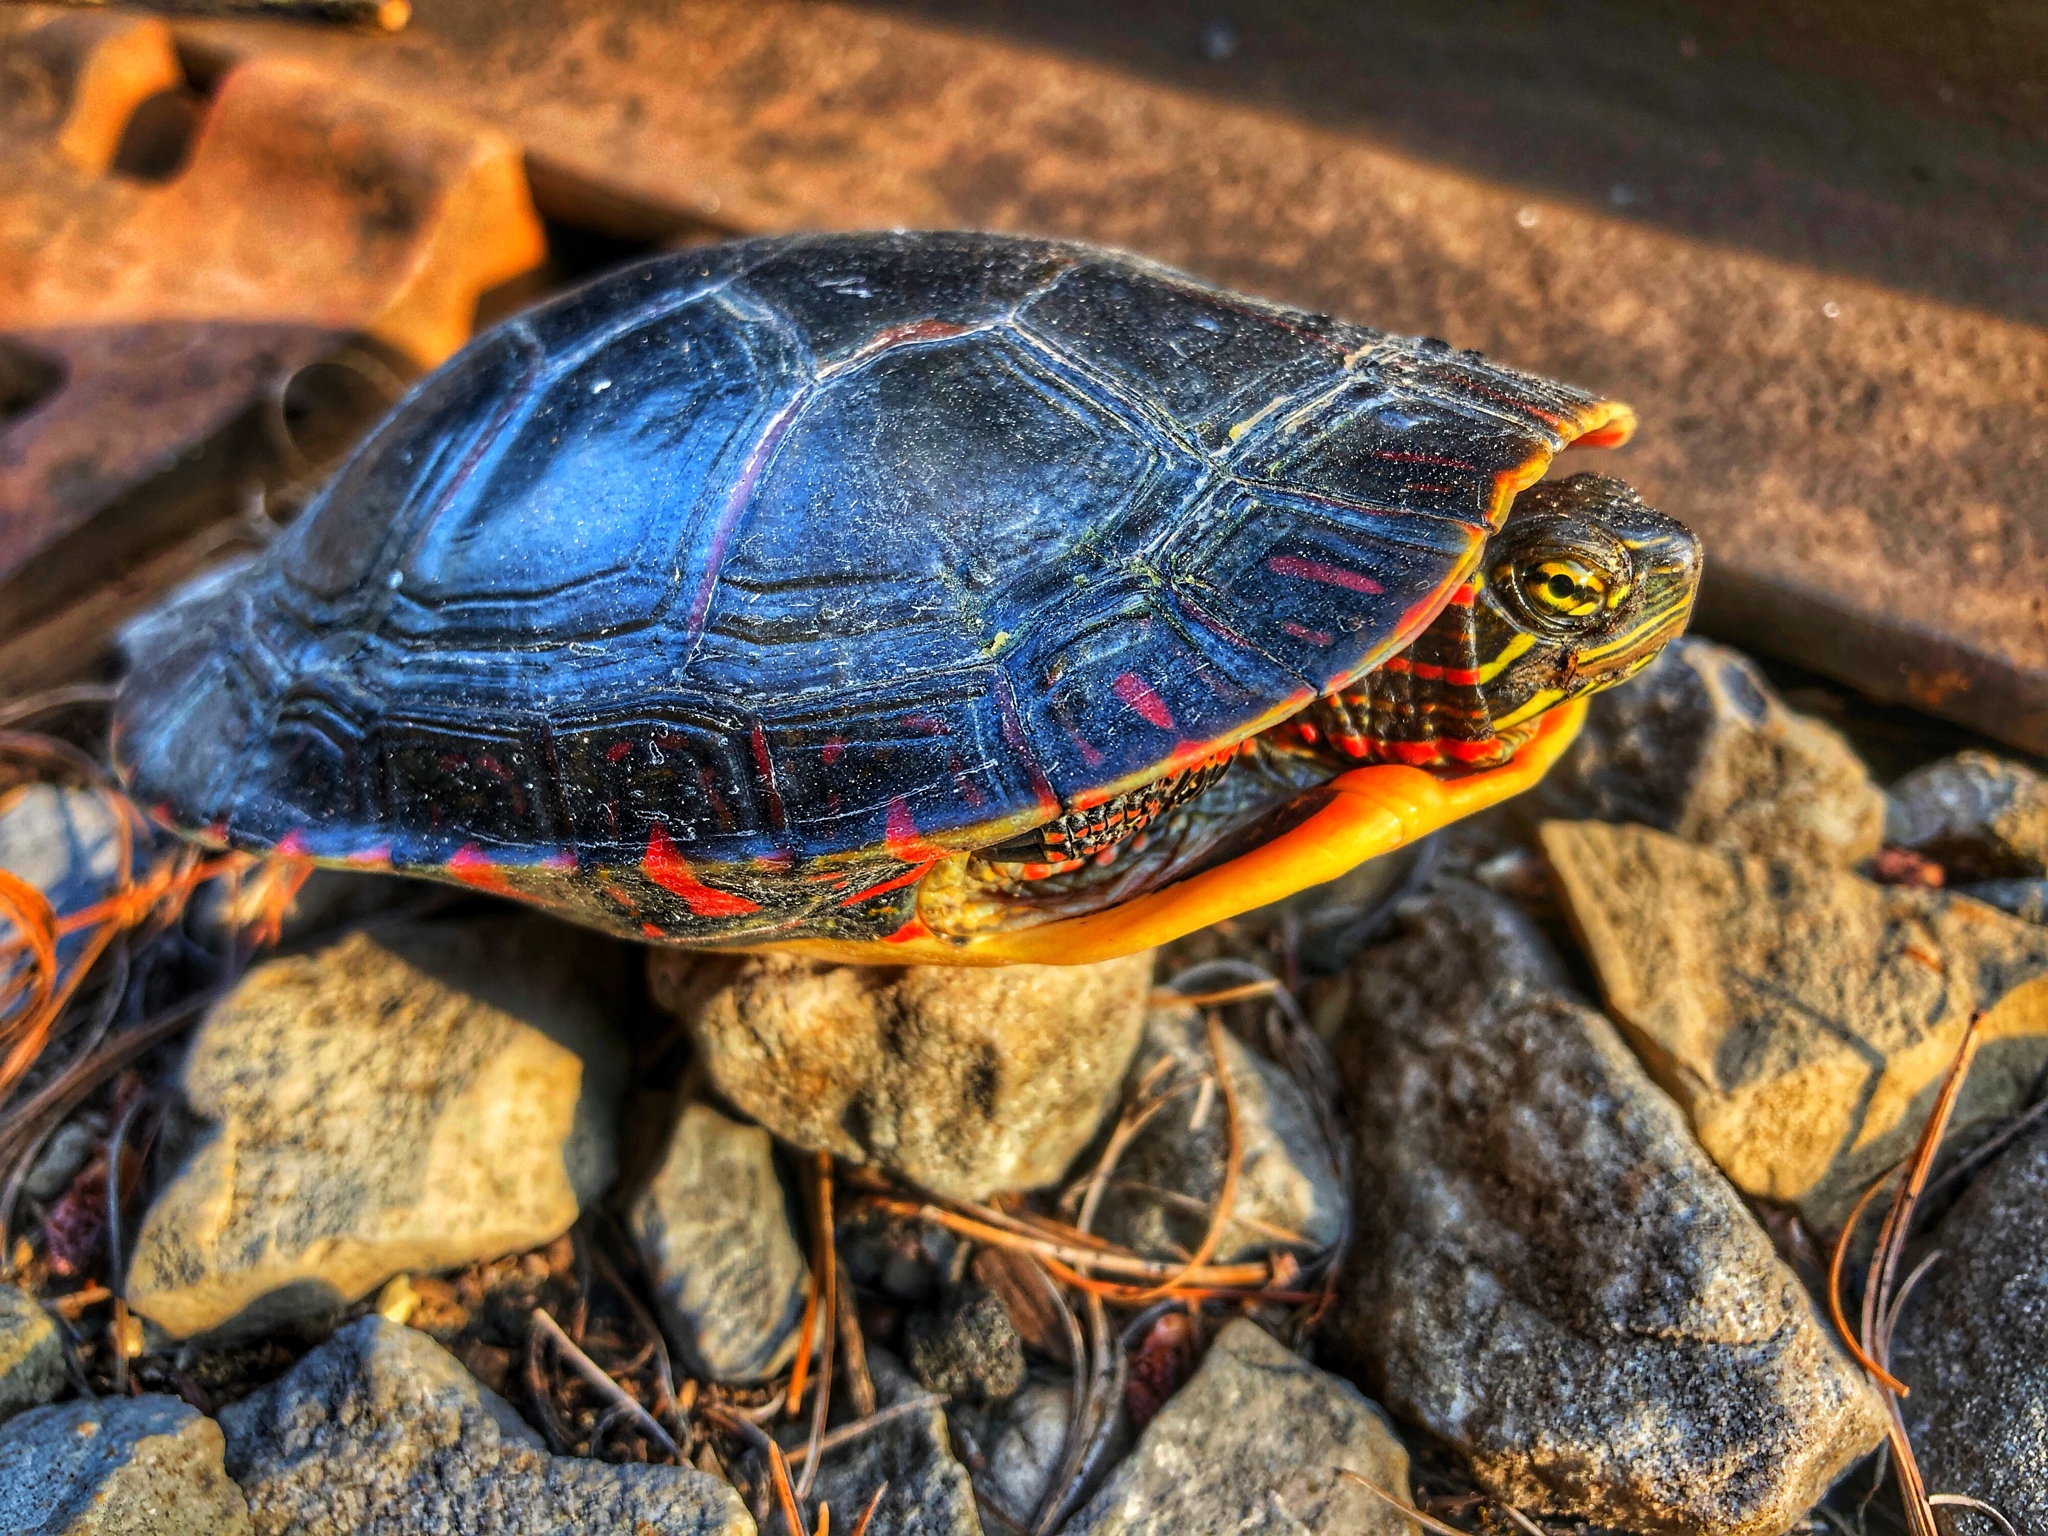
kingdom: Animalia
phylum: Chordata
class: Testudines
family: Emydidae
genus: Chrysemys
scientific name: Chrysemys picta
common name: Painted turtle
